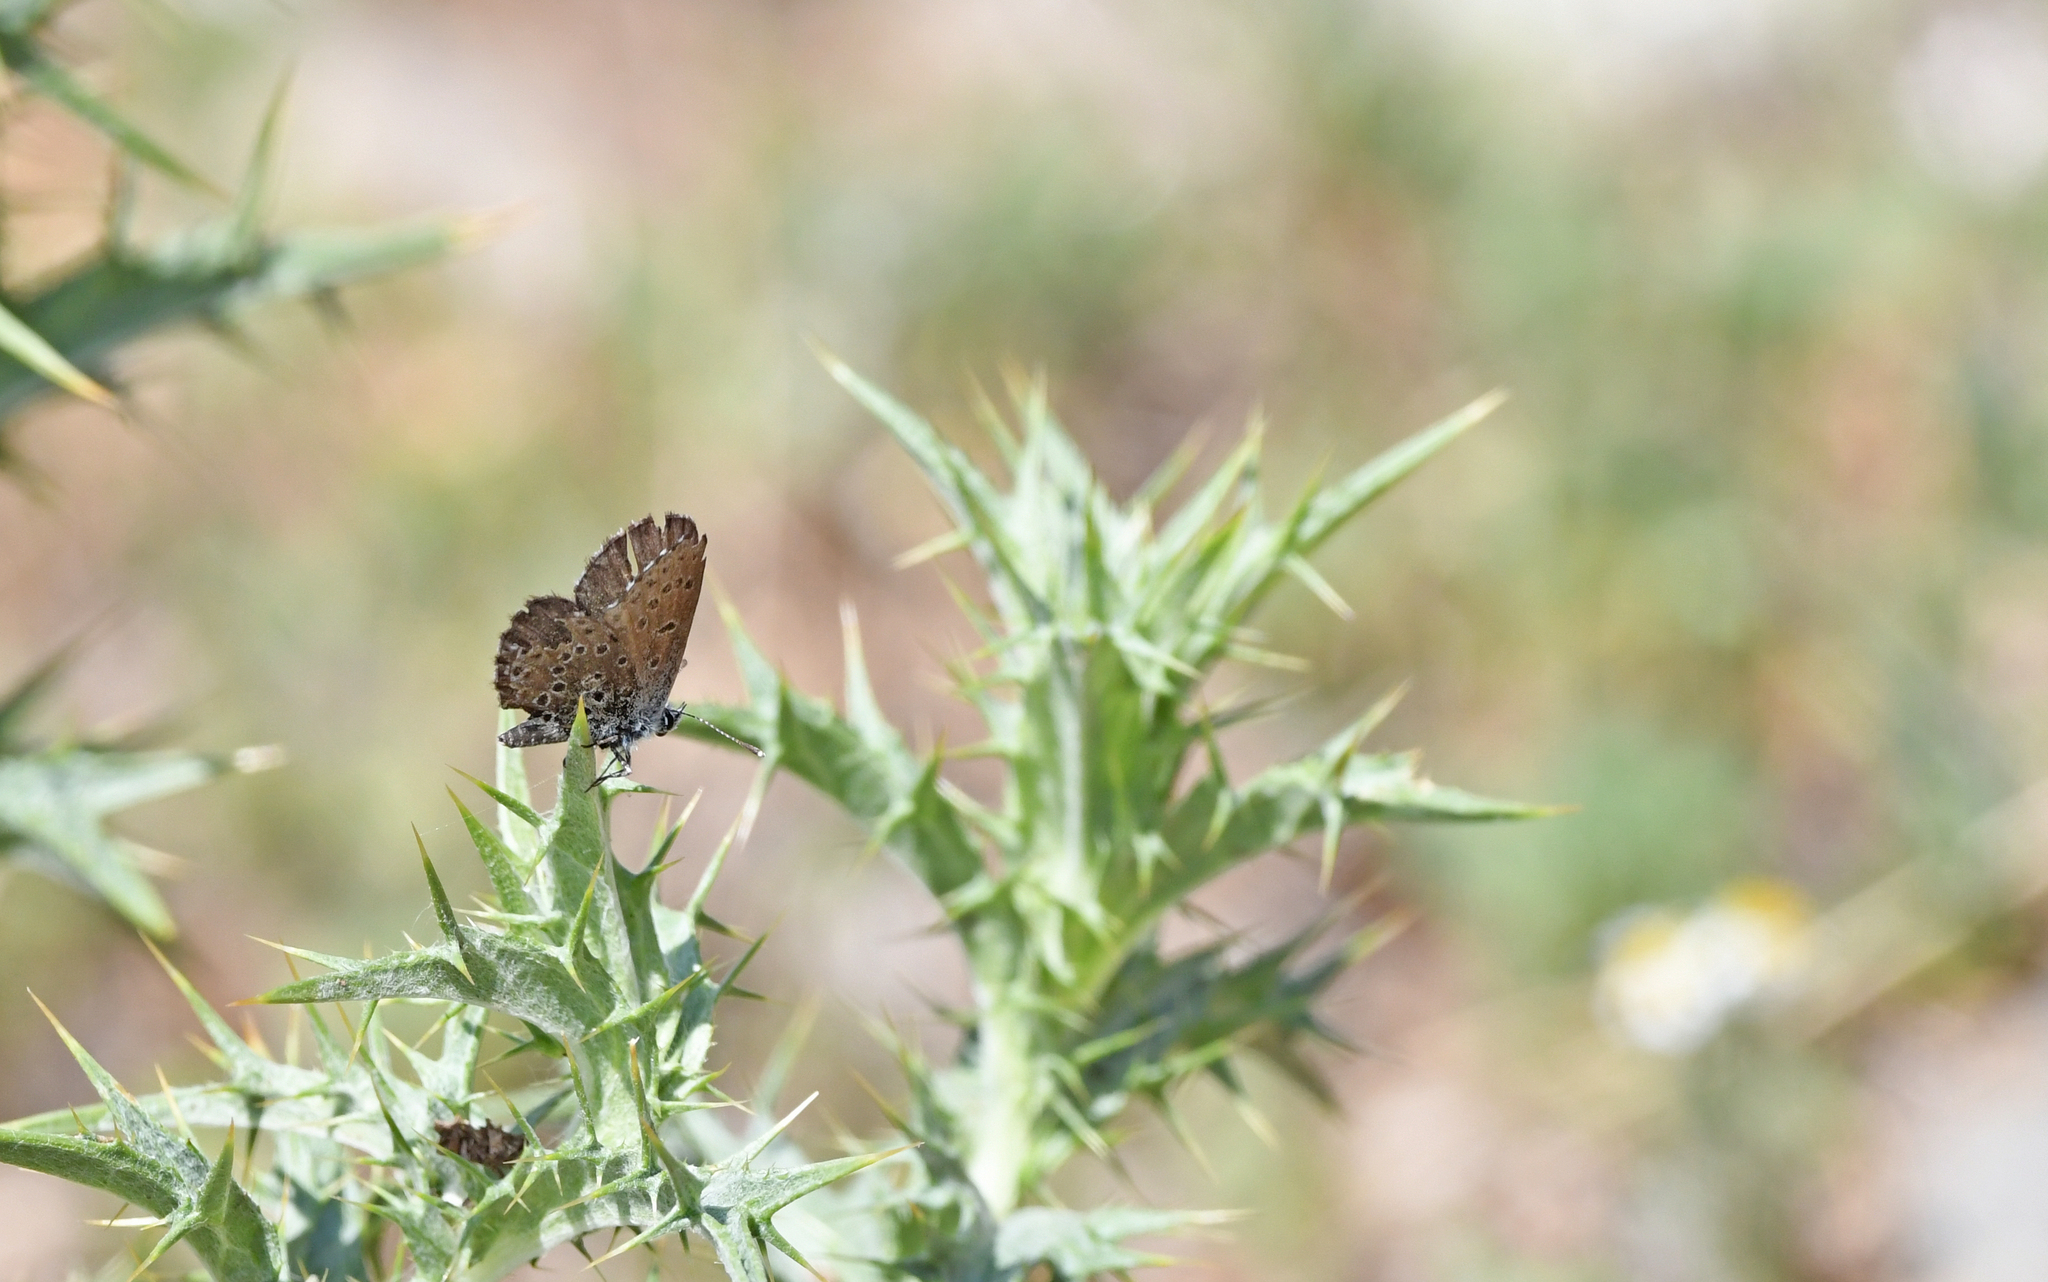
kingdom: Animalia
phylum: Arthropoda
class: Insecta
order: Lepidoptera
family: Lycaenidae
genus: Pseudophilotes
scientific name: Pseudophilotes barbagiae
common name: Sardinian blue
